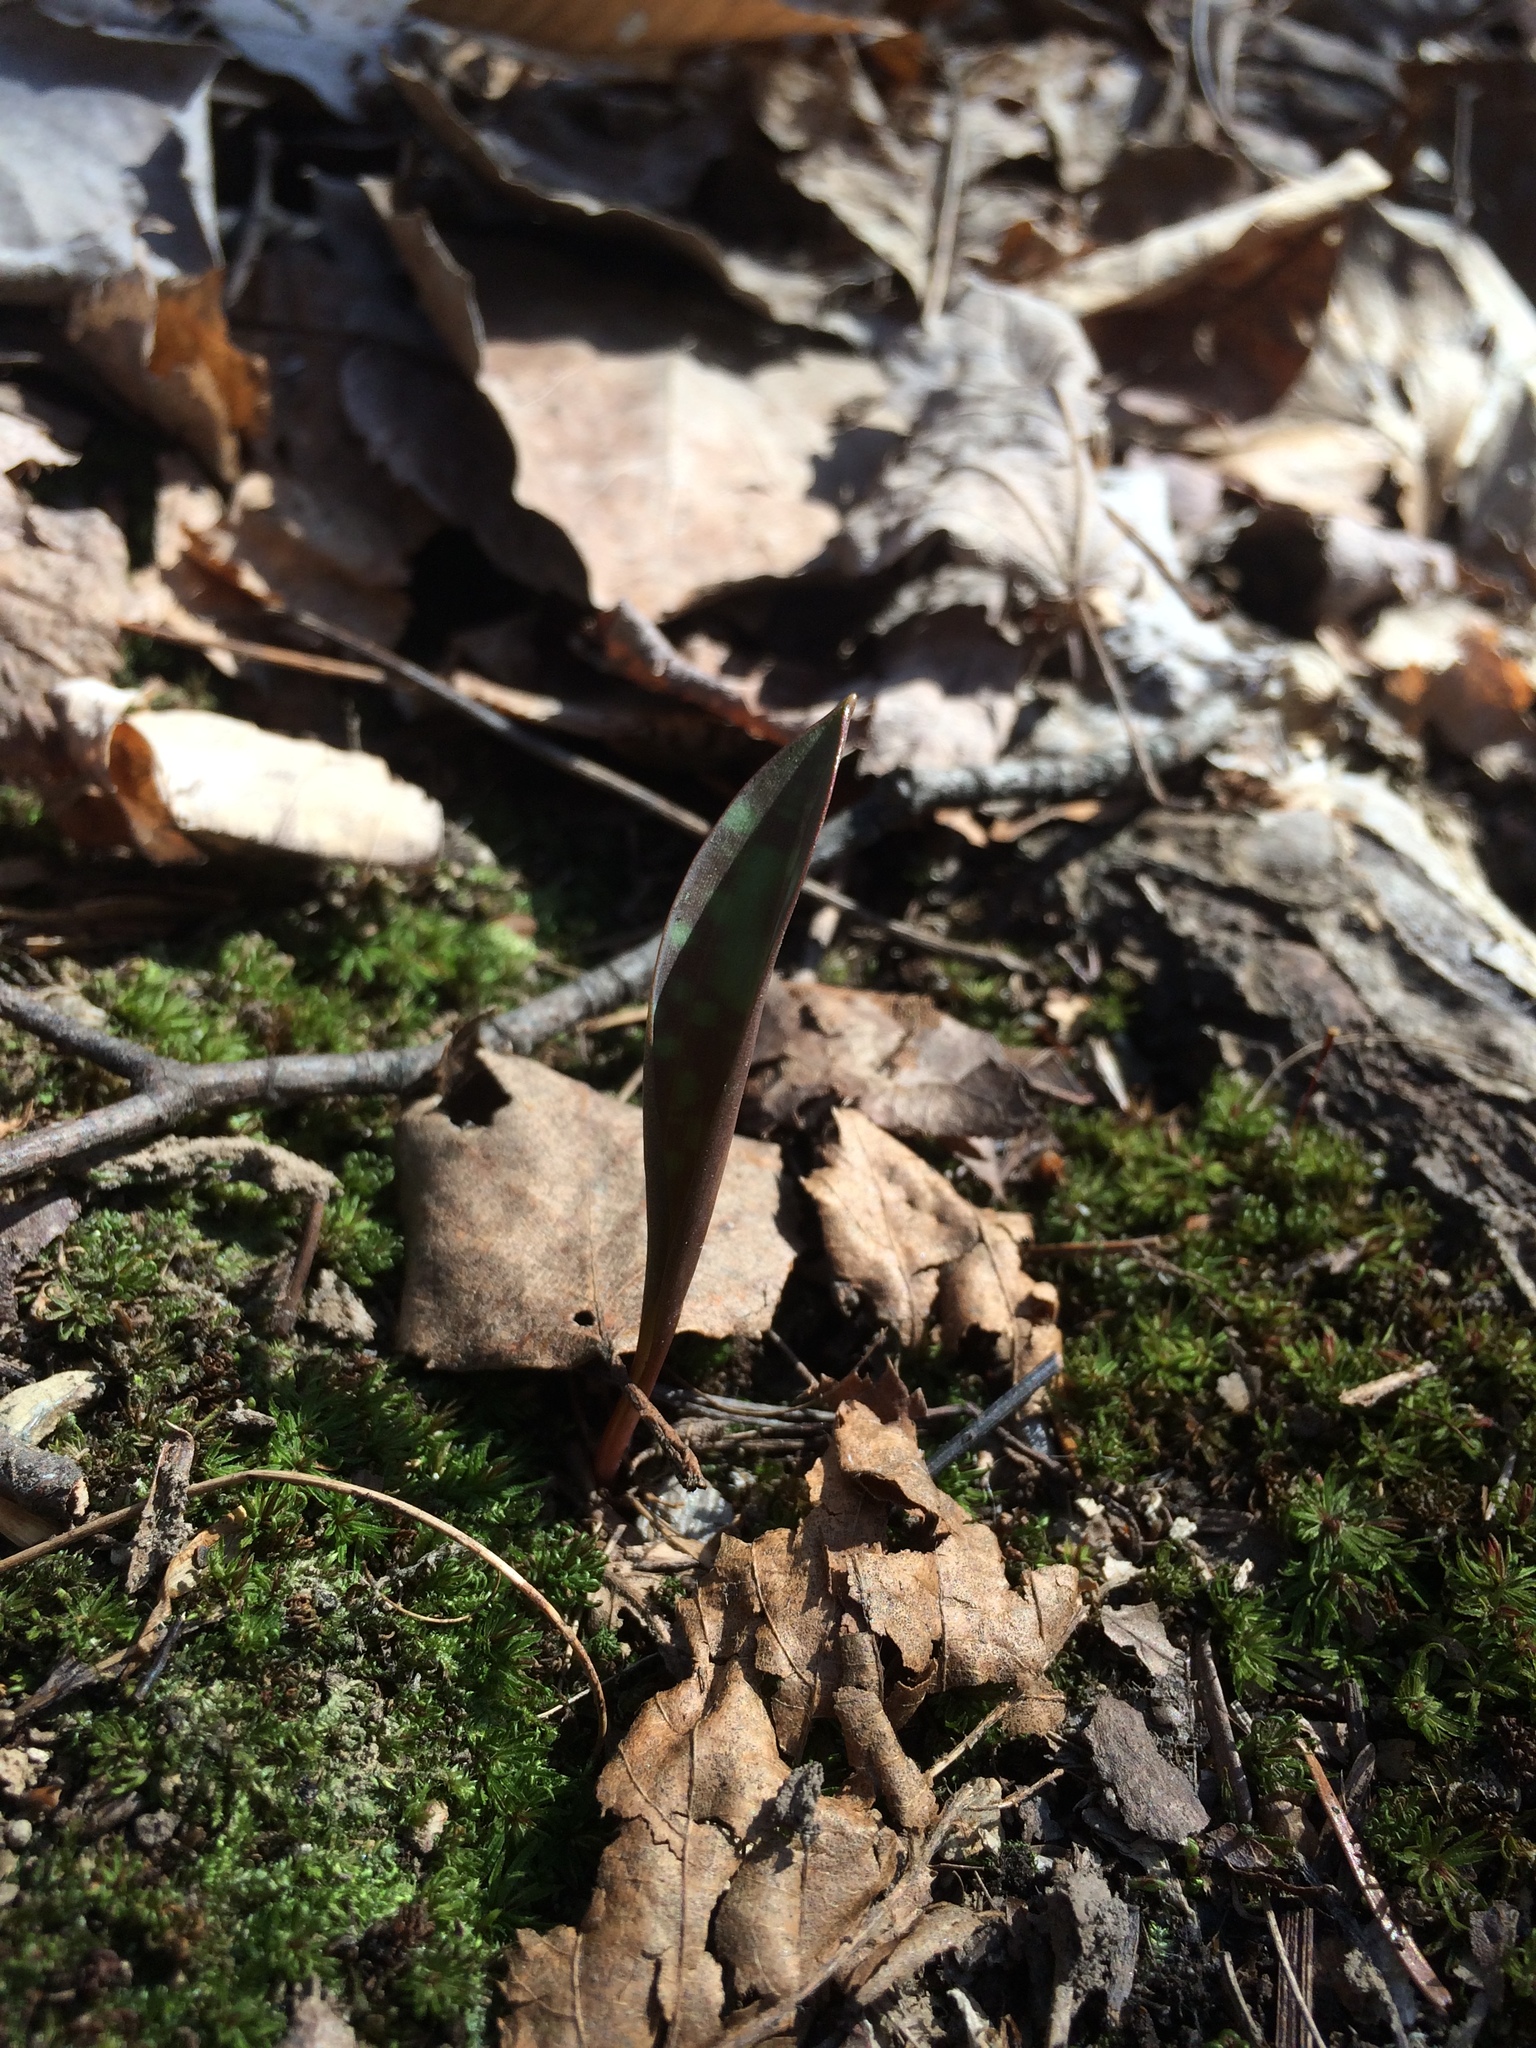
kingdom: Plantae
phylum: Tracheophyta
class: Liliopsida
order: Liliales
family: Liliaceae
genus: Erythronium
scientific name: Erythronium americanum
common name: Yellow adder's-tongue
